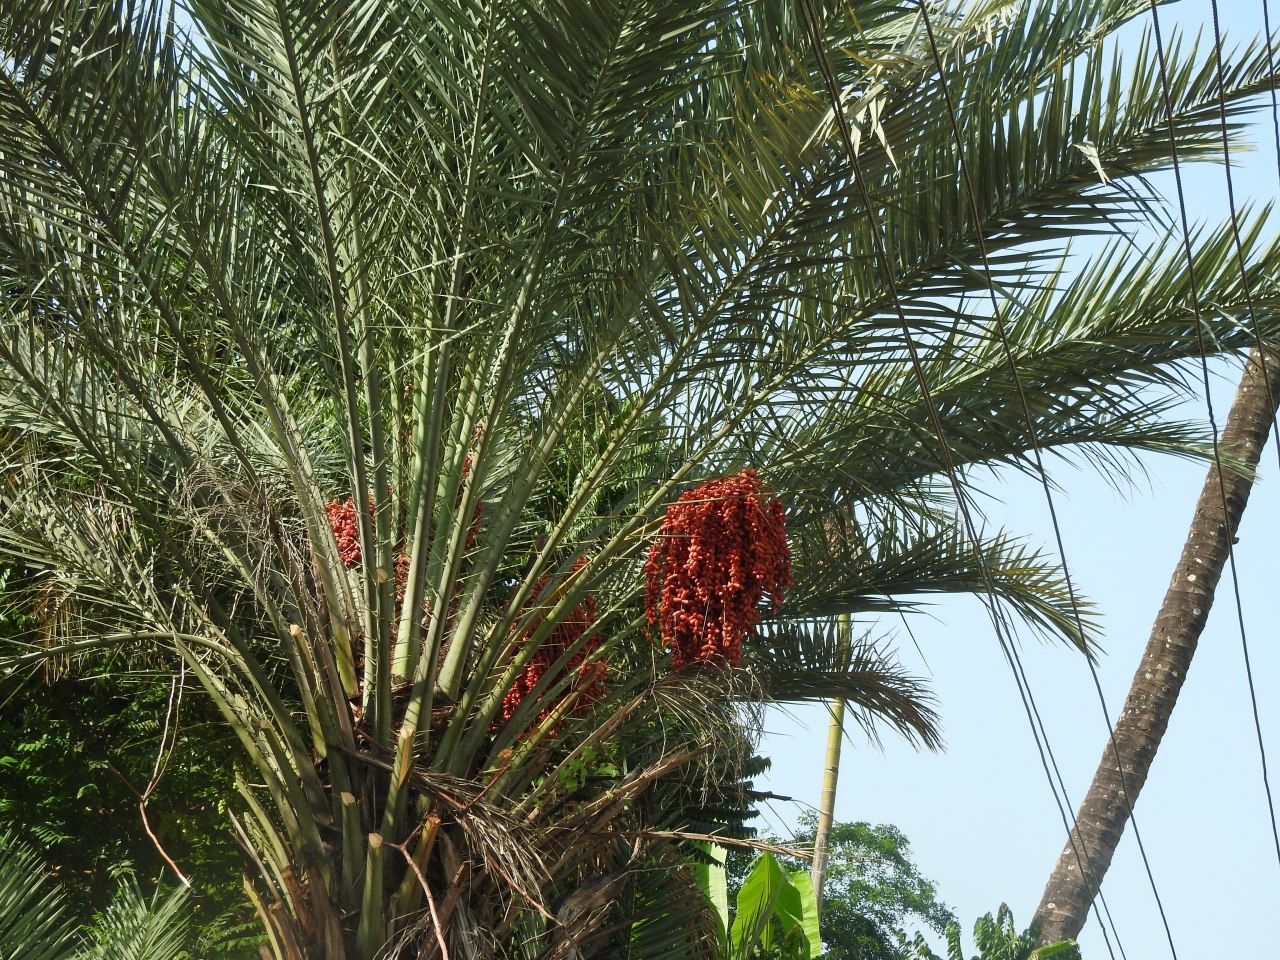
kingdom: Plantae
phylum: Tracheophyta
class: Liliopsida
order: Arecales
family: Arecaceae
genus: Phoenix
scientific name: Phoenix dactylifera
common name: Date palm
